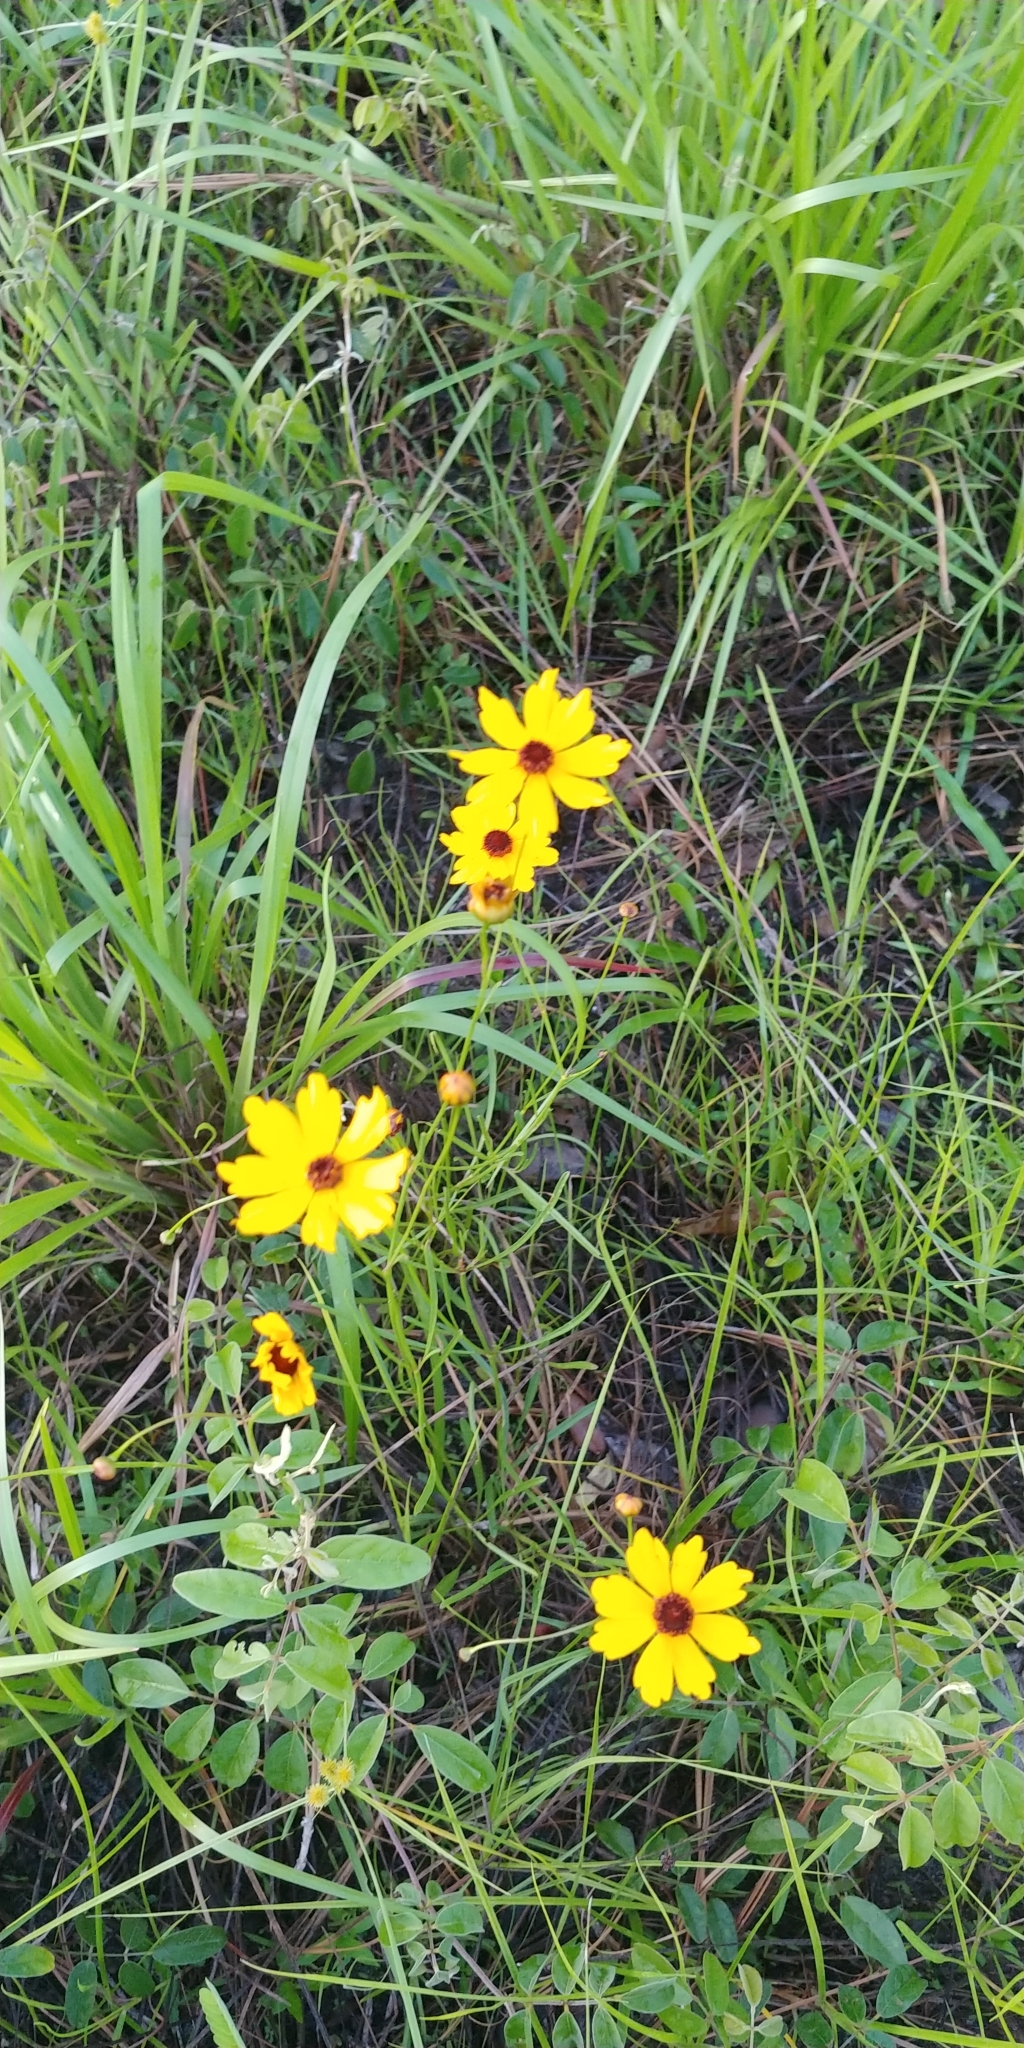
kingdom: Plantae
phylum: Tracheophyta
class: Magnoliopsida
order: Asterales
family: Asteraceae
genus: Coreopsis
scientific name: Coreopsis leavenworthii
